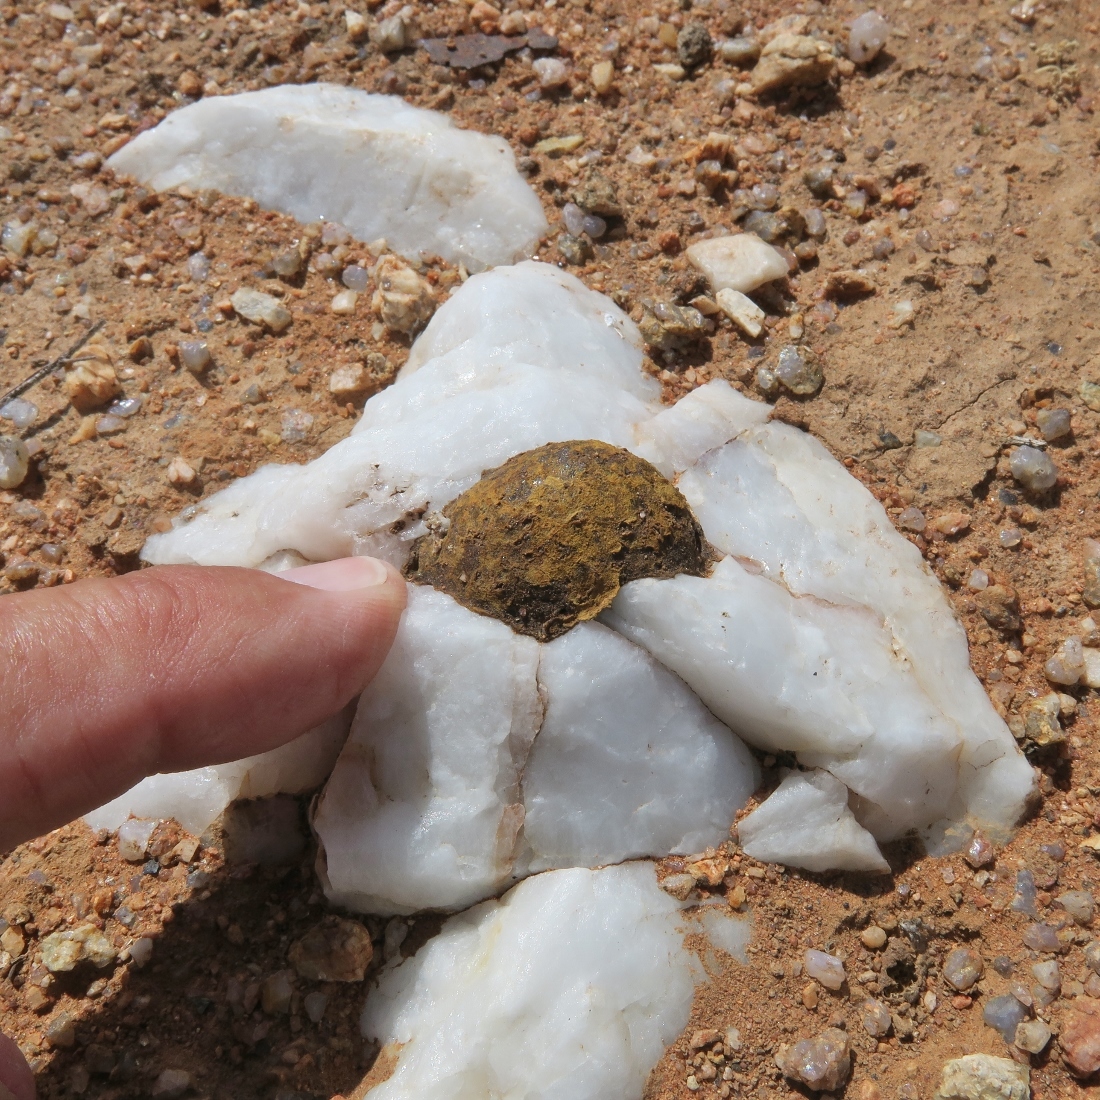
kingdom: Animalia
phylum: Arthropoda
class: Insecta
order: Hymenoptera
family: Megachilidae
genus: Othinosmia
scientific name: Othinosmia schultzei
